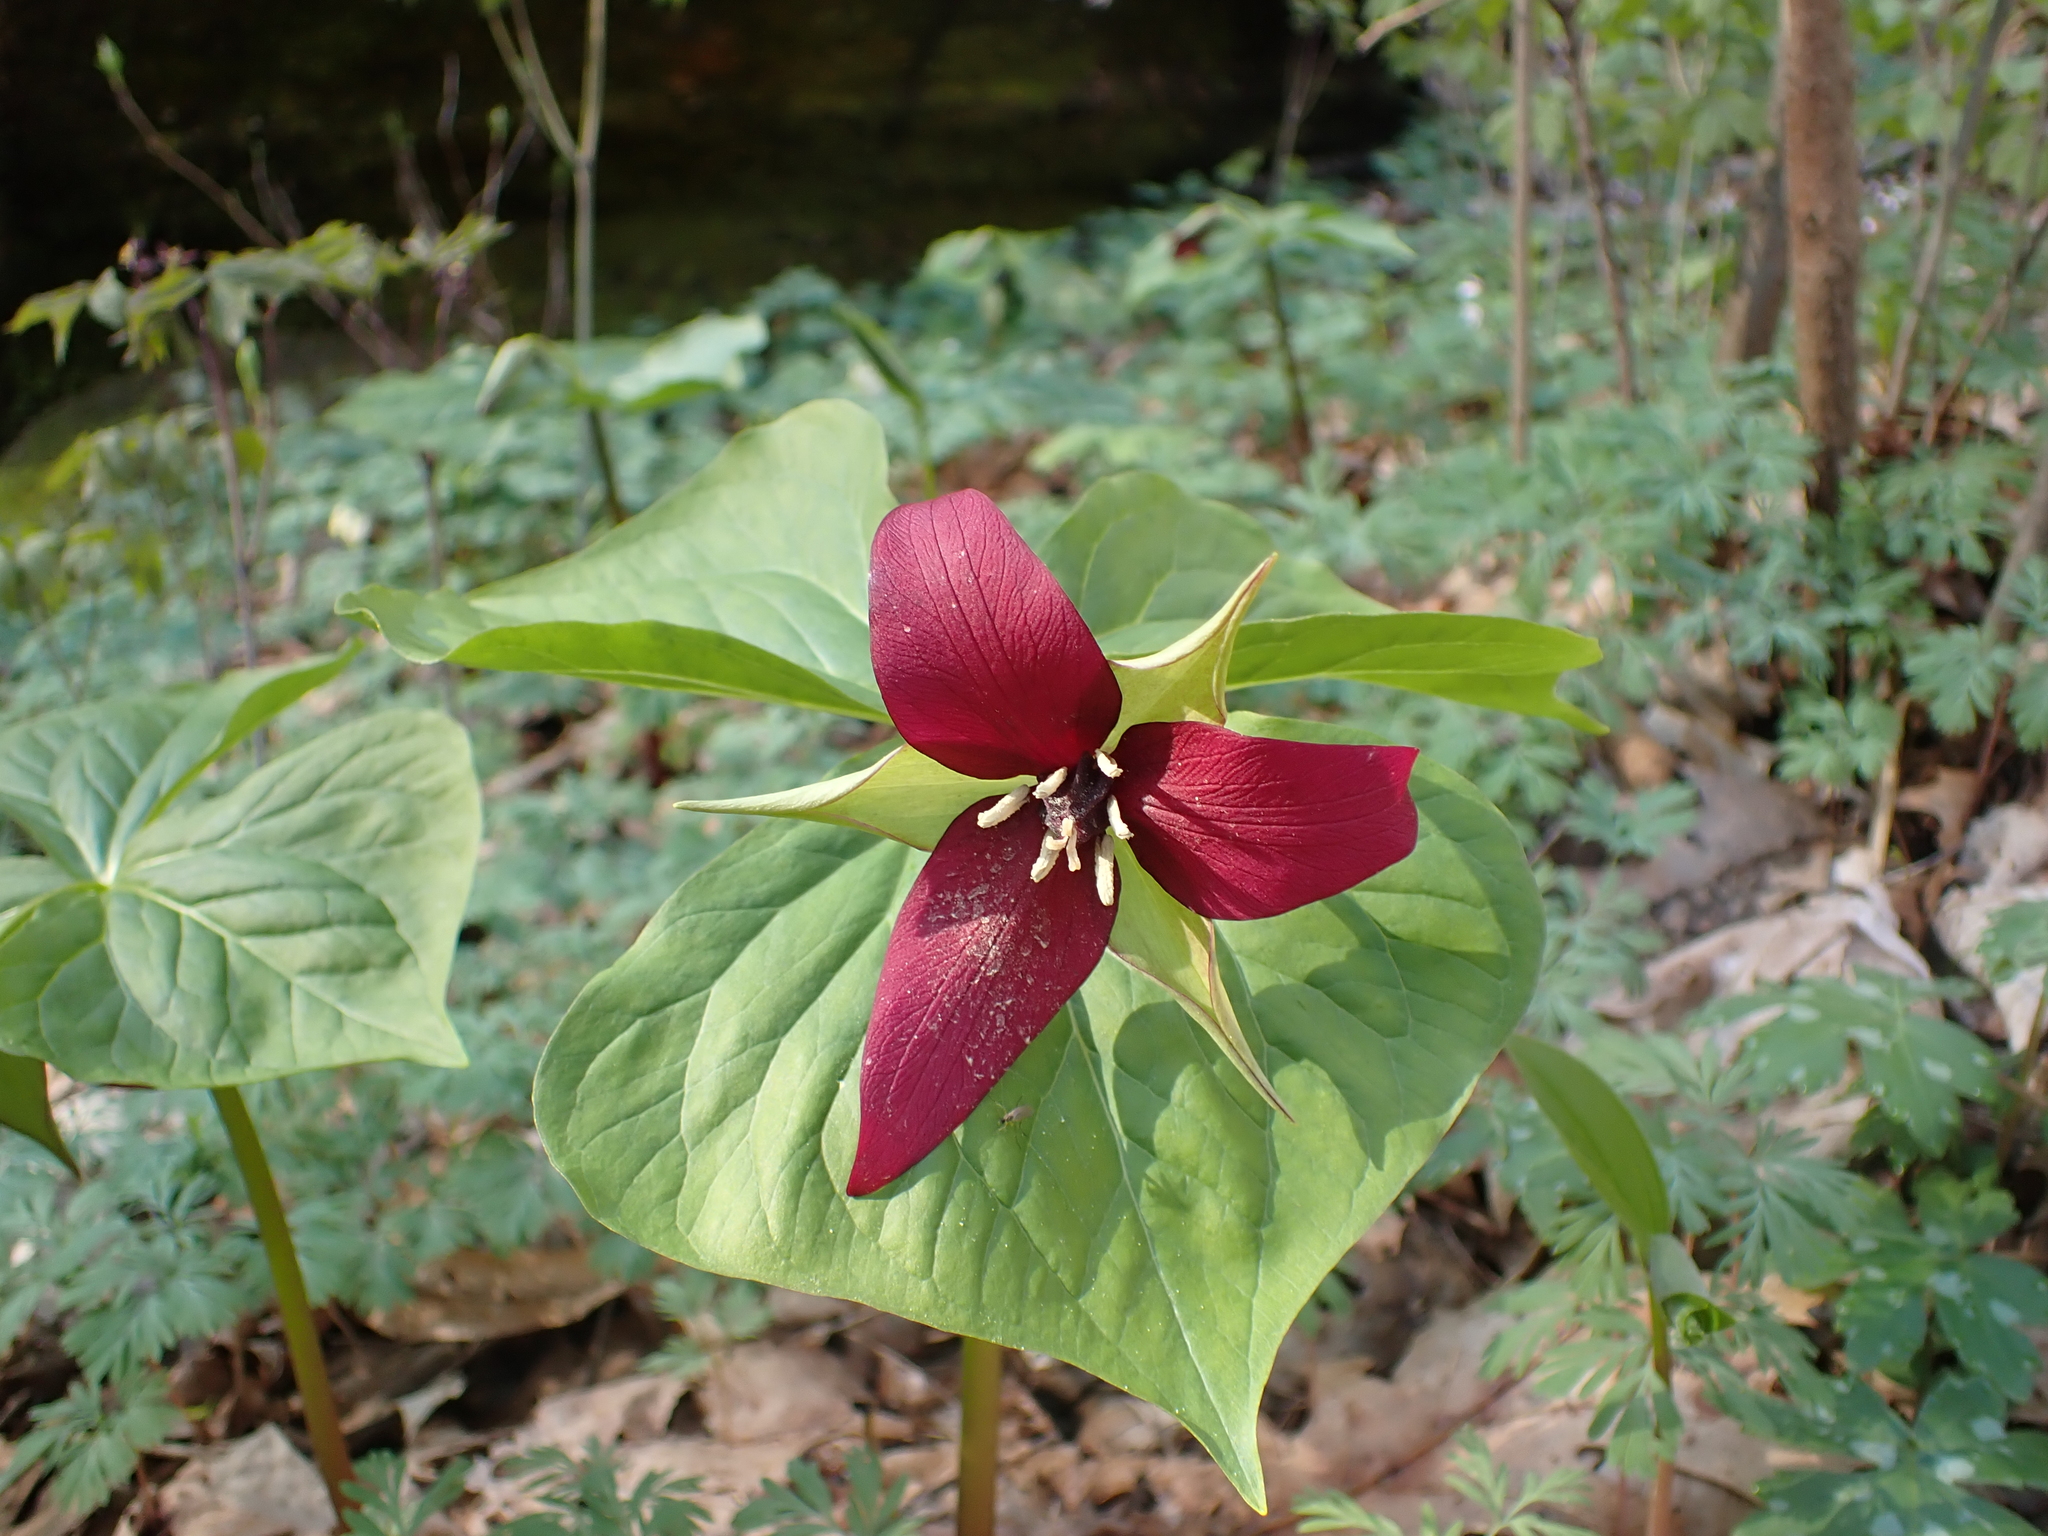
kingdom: Plantae
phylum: Tracheophyta
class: Liliopsida
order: Liliales
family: Melanthiaceae
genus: Trillium
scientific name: Trillium erectum
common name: Purple trillium
